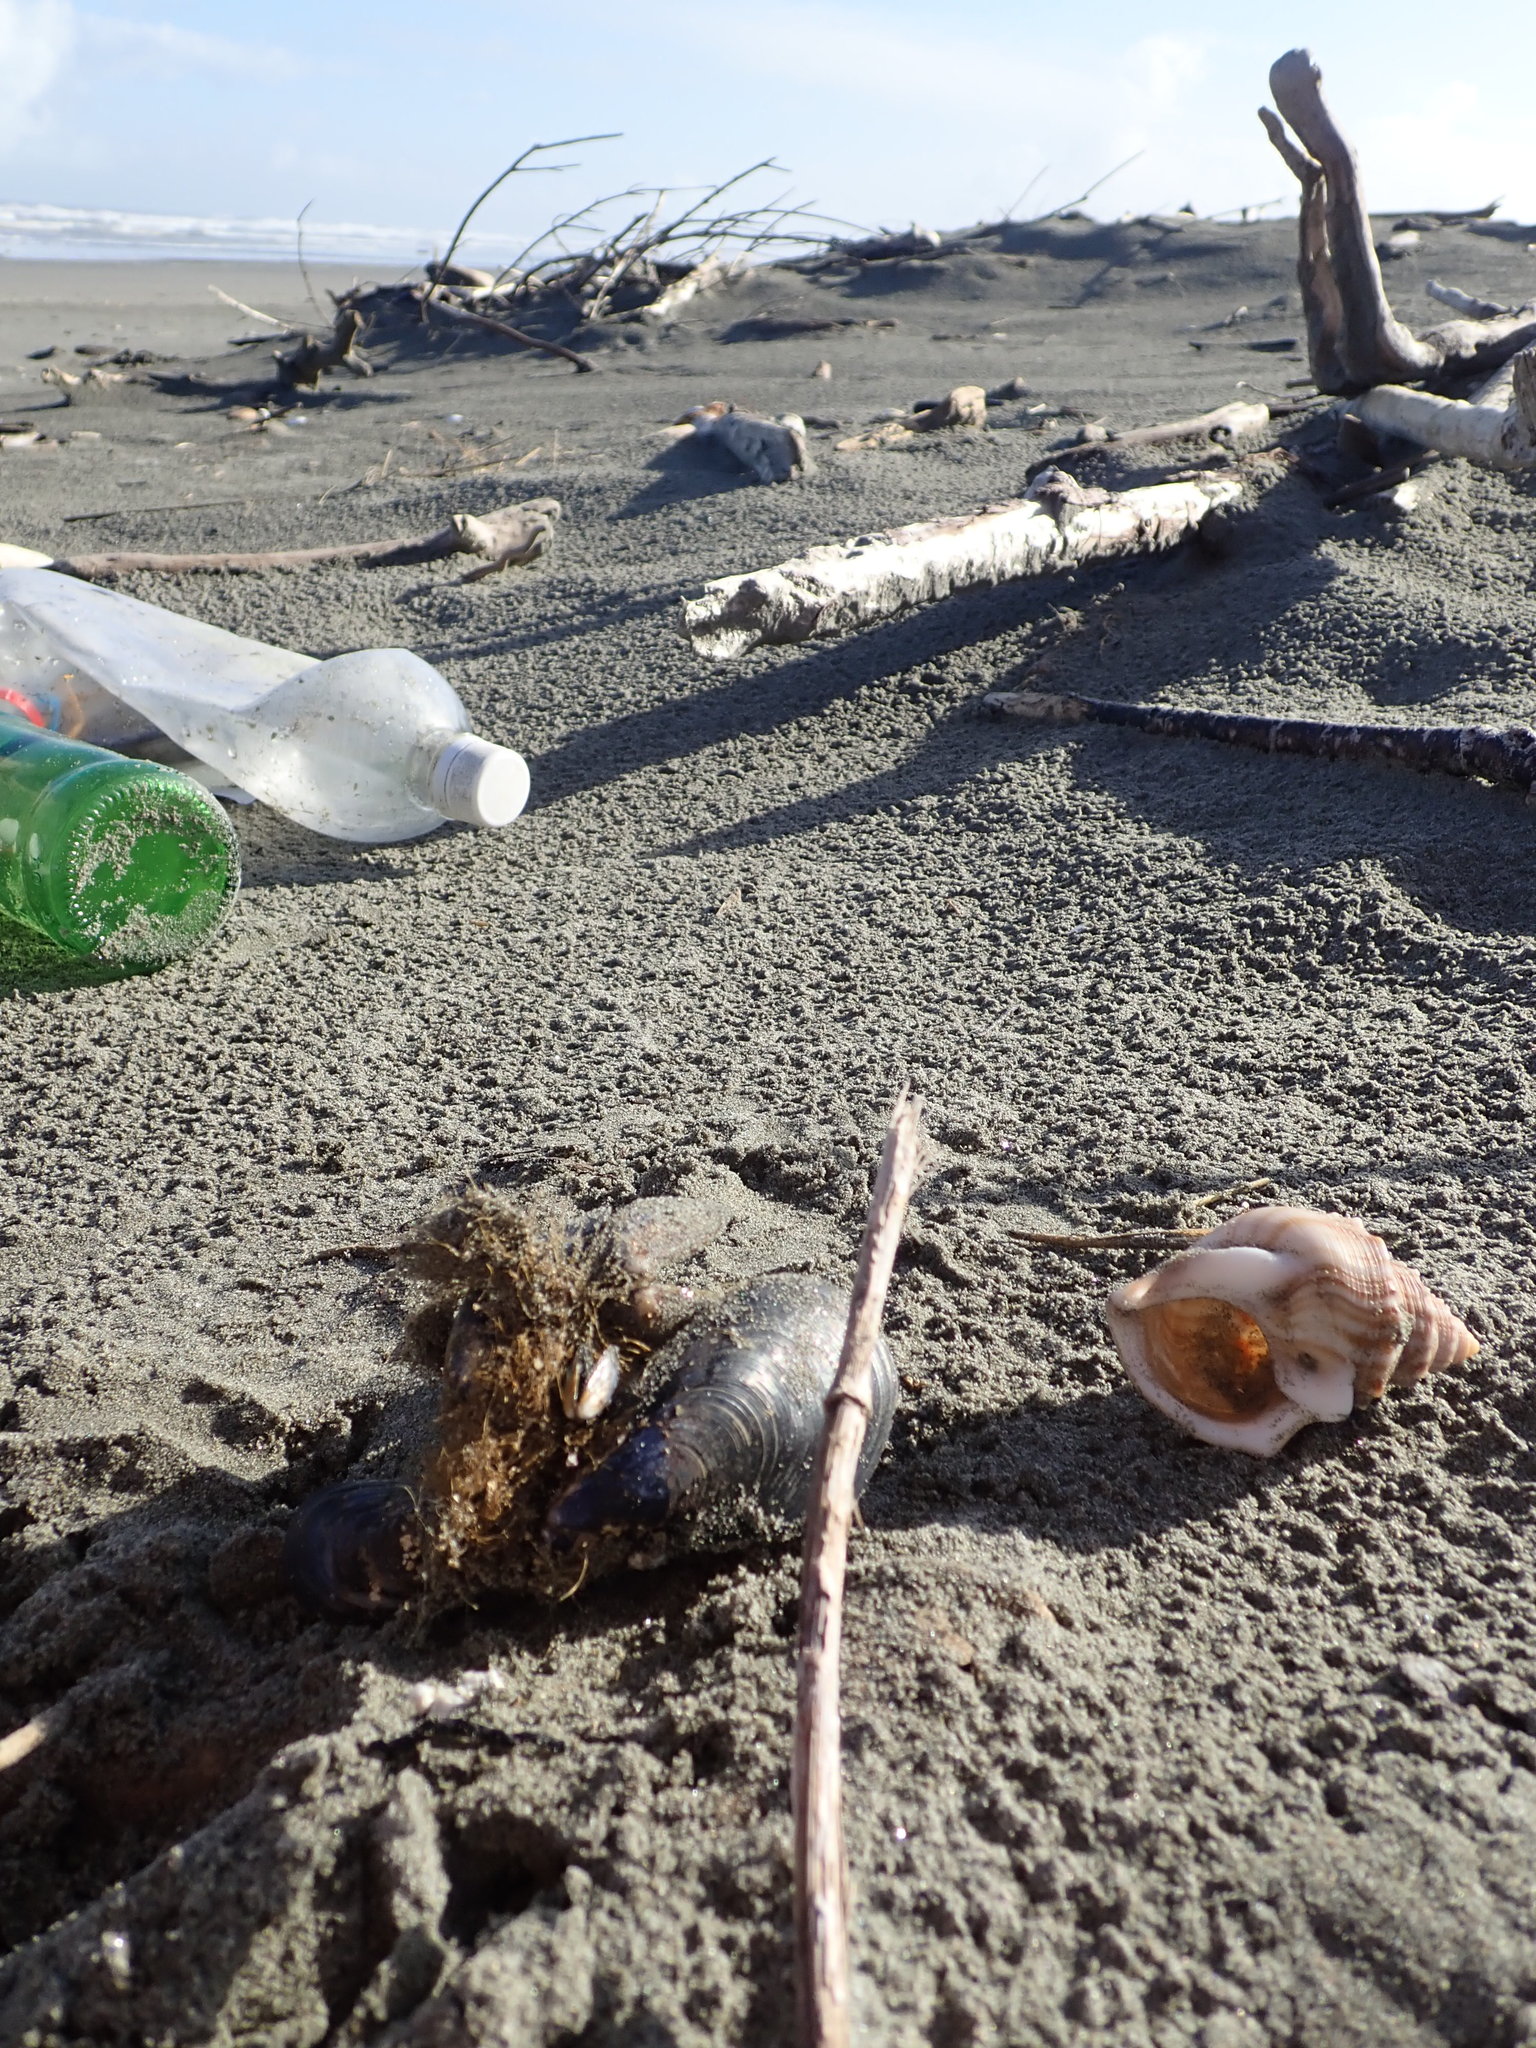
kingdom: Animalia
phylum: Mollusca
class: Gastropoda
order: Littorinimorpha
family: Struthiolariidae
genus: Struthiolaria
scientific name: Struthiolaria papulosa
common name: Large ostrich foot
